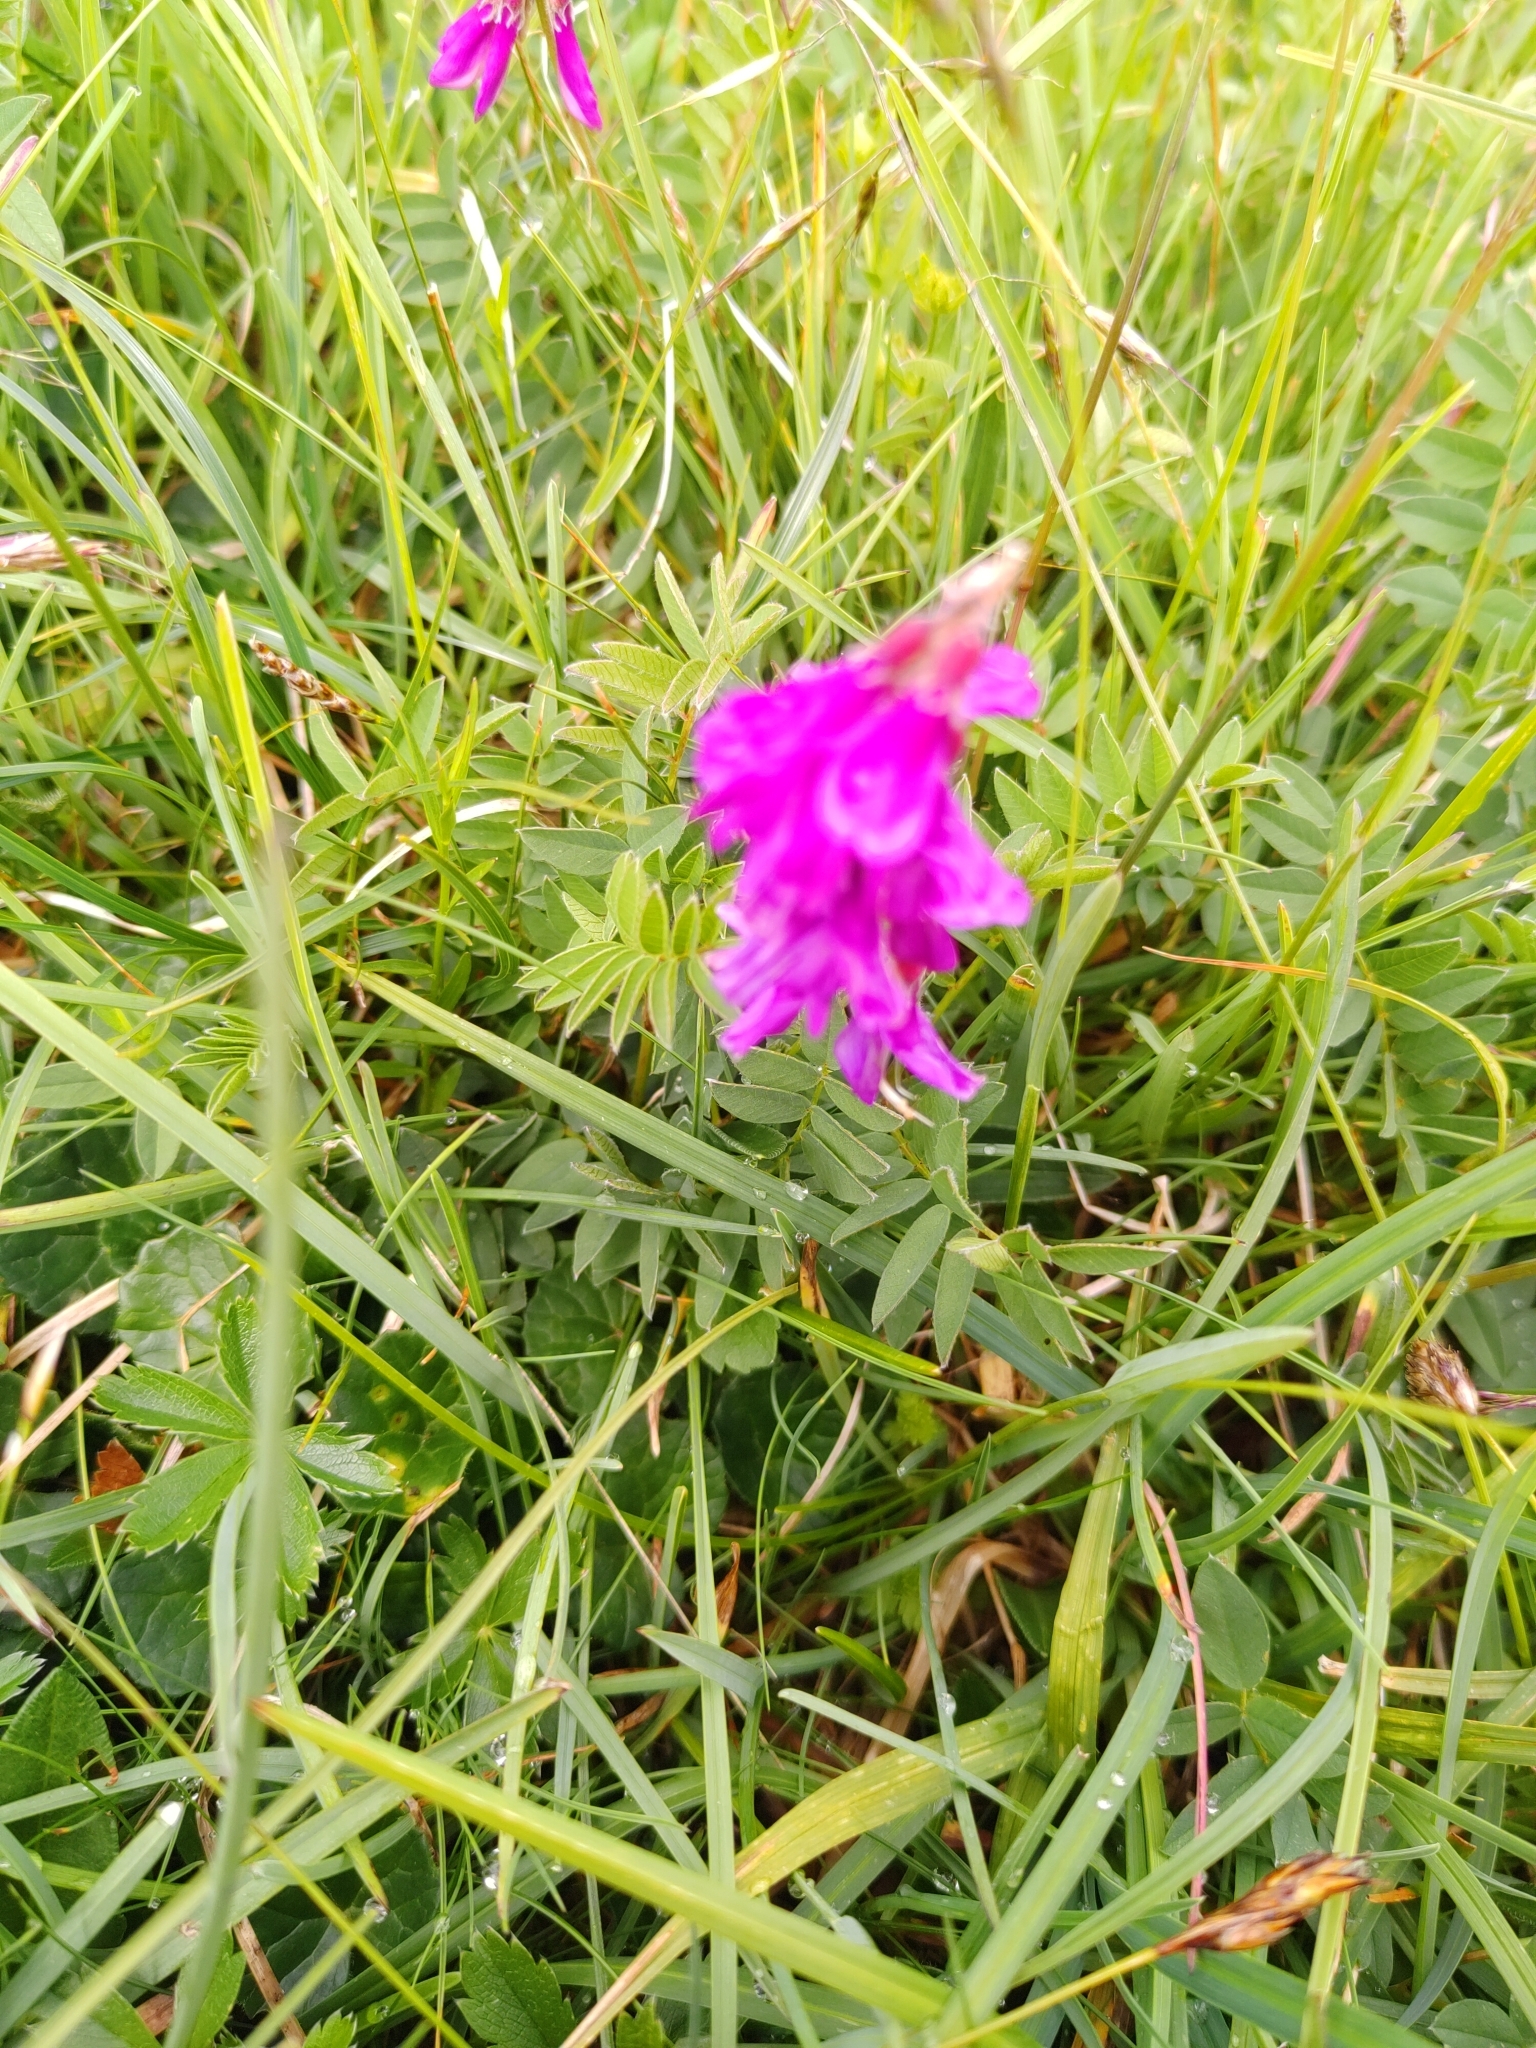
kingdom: Plantae
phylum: Tracheophyta
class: Magnoliopsida
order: Fabales
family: Fabaceae
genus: Hedysarum
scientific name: Hedysarum hedysaroides
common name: Alpine french-honeysuckle
